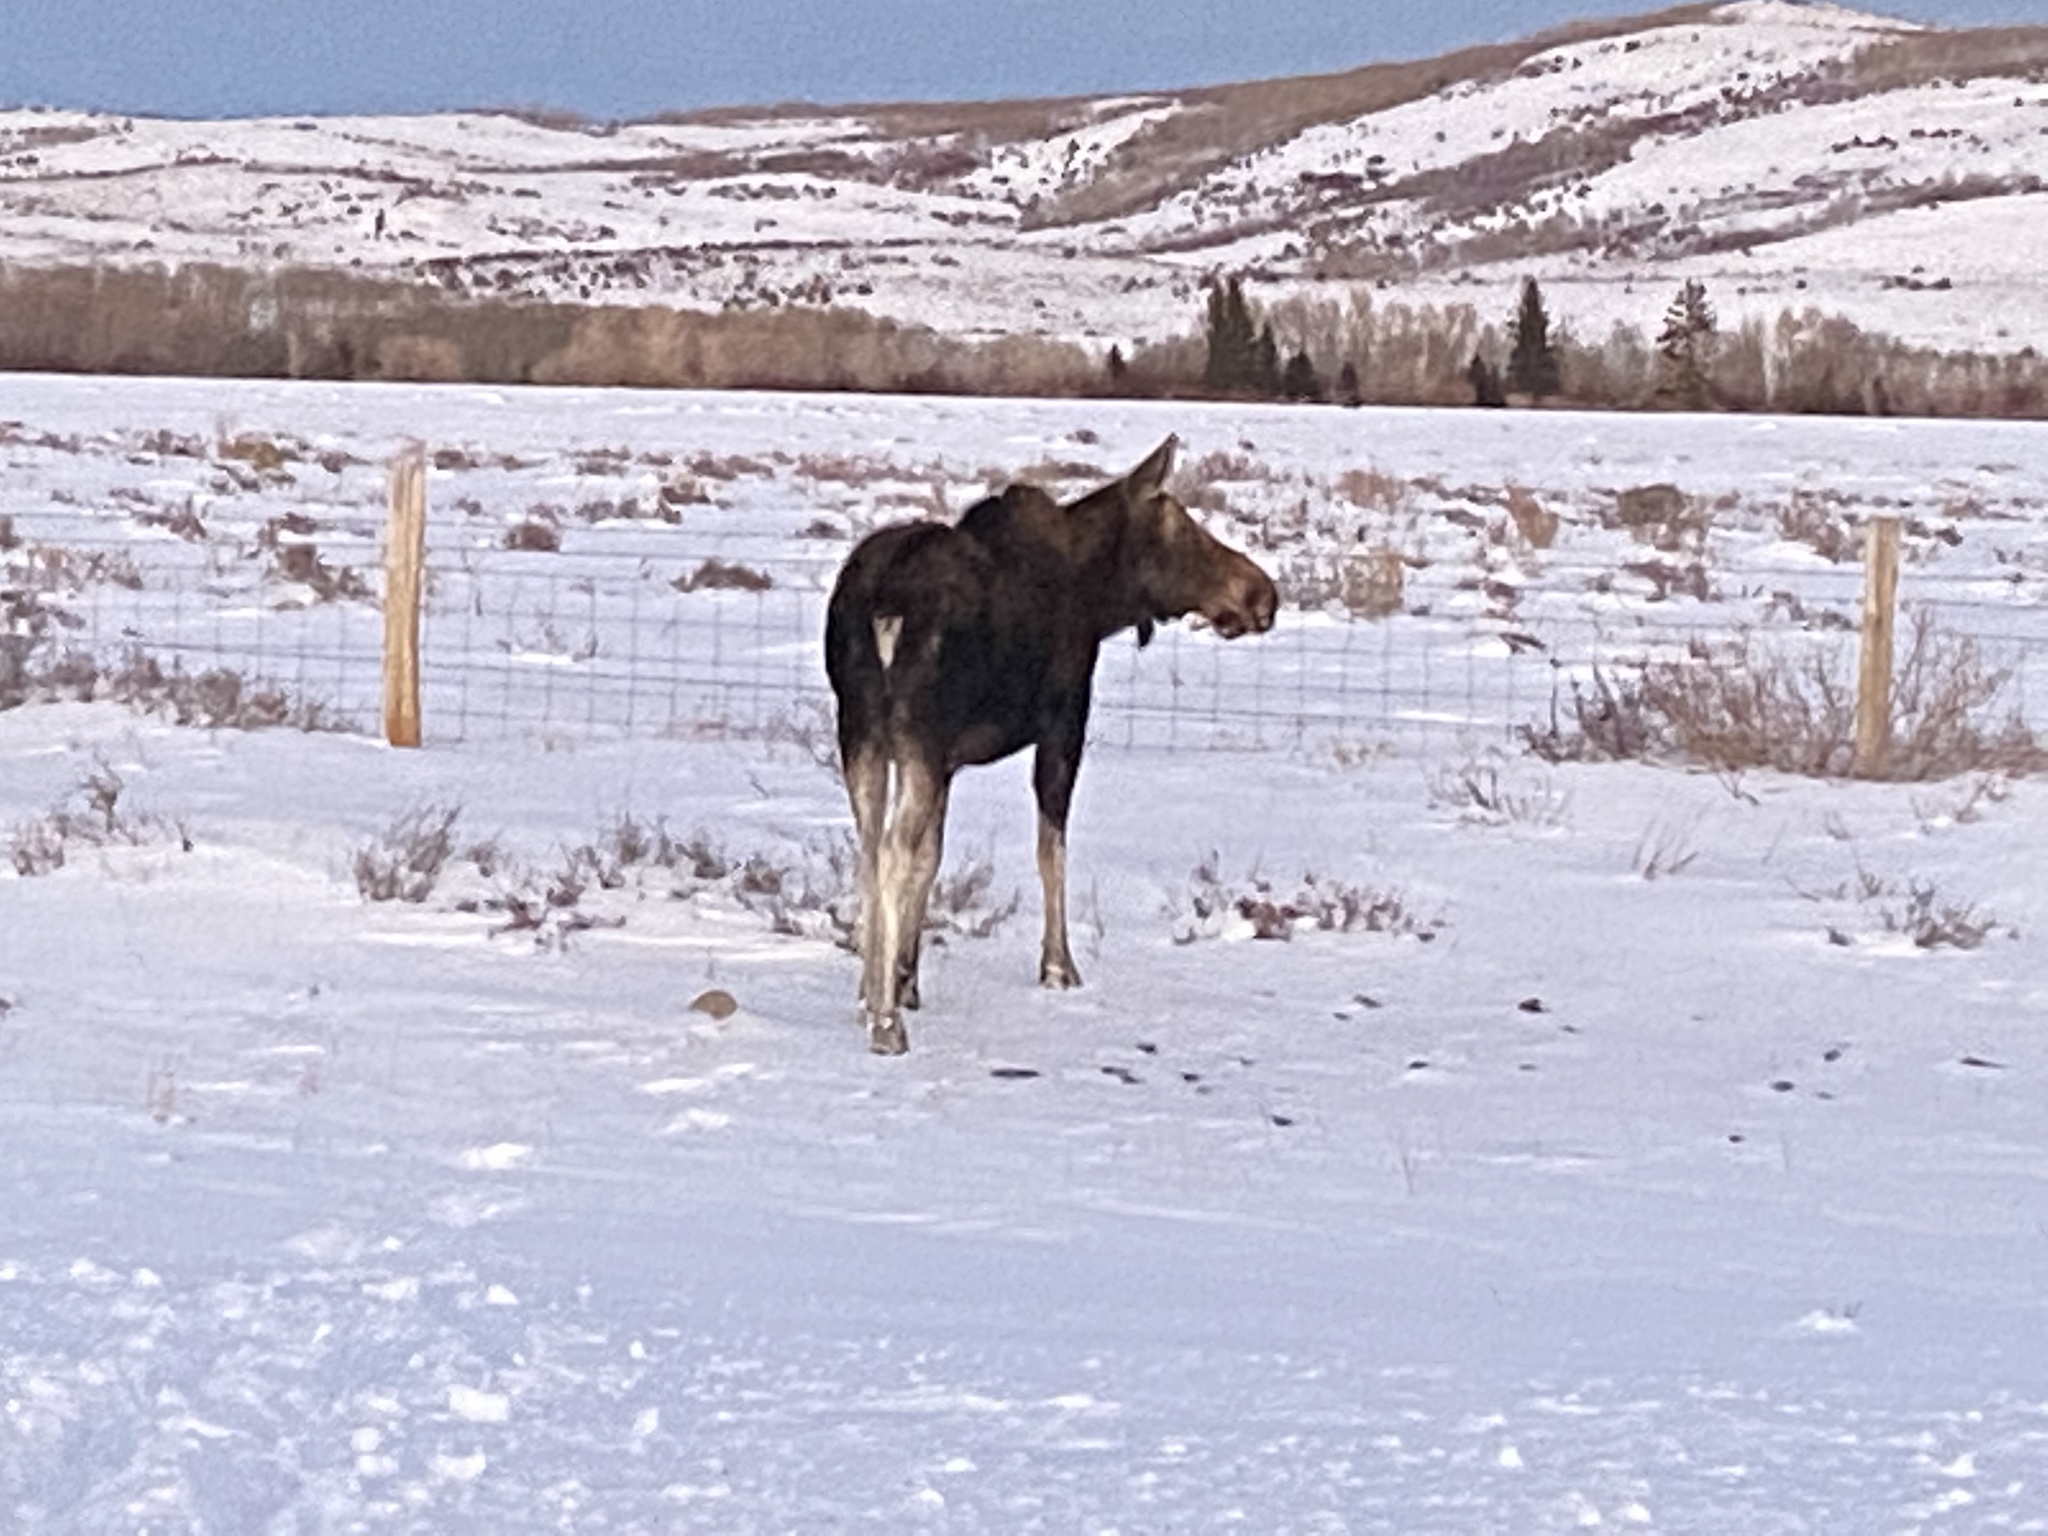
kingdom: Animalia
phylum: Chordata
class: Mammalia
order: Artiodactyla
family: Cervidae
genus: Alces
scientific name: Alces alces
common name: Moose
